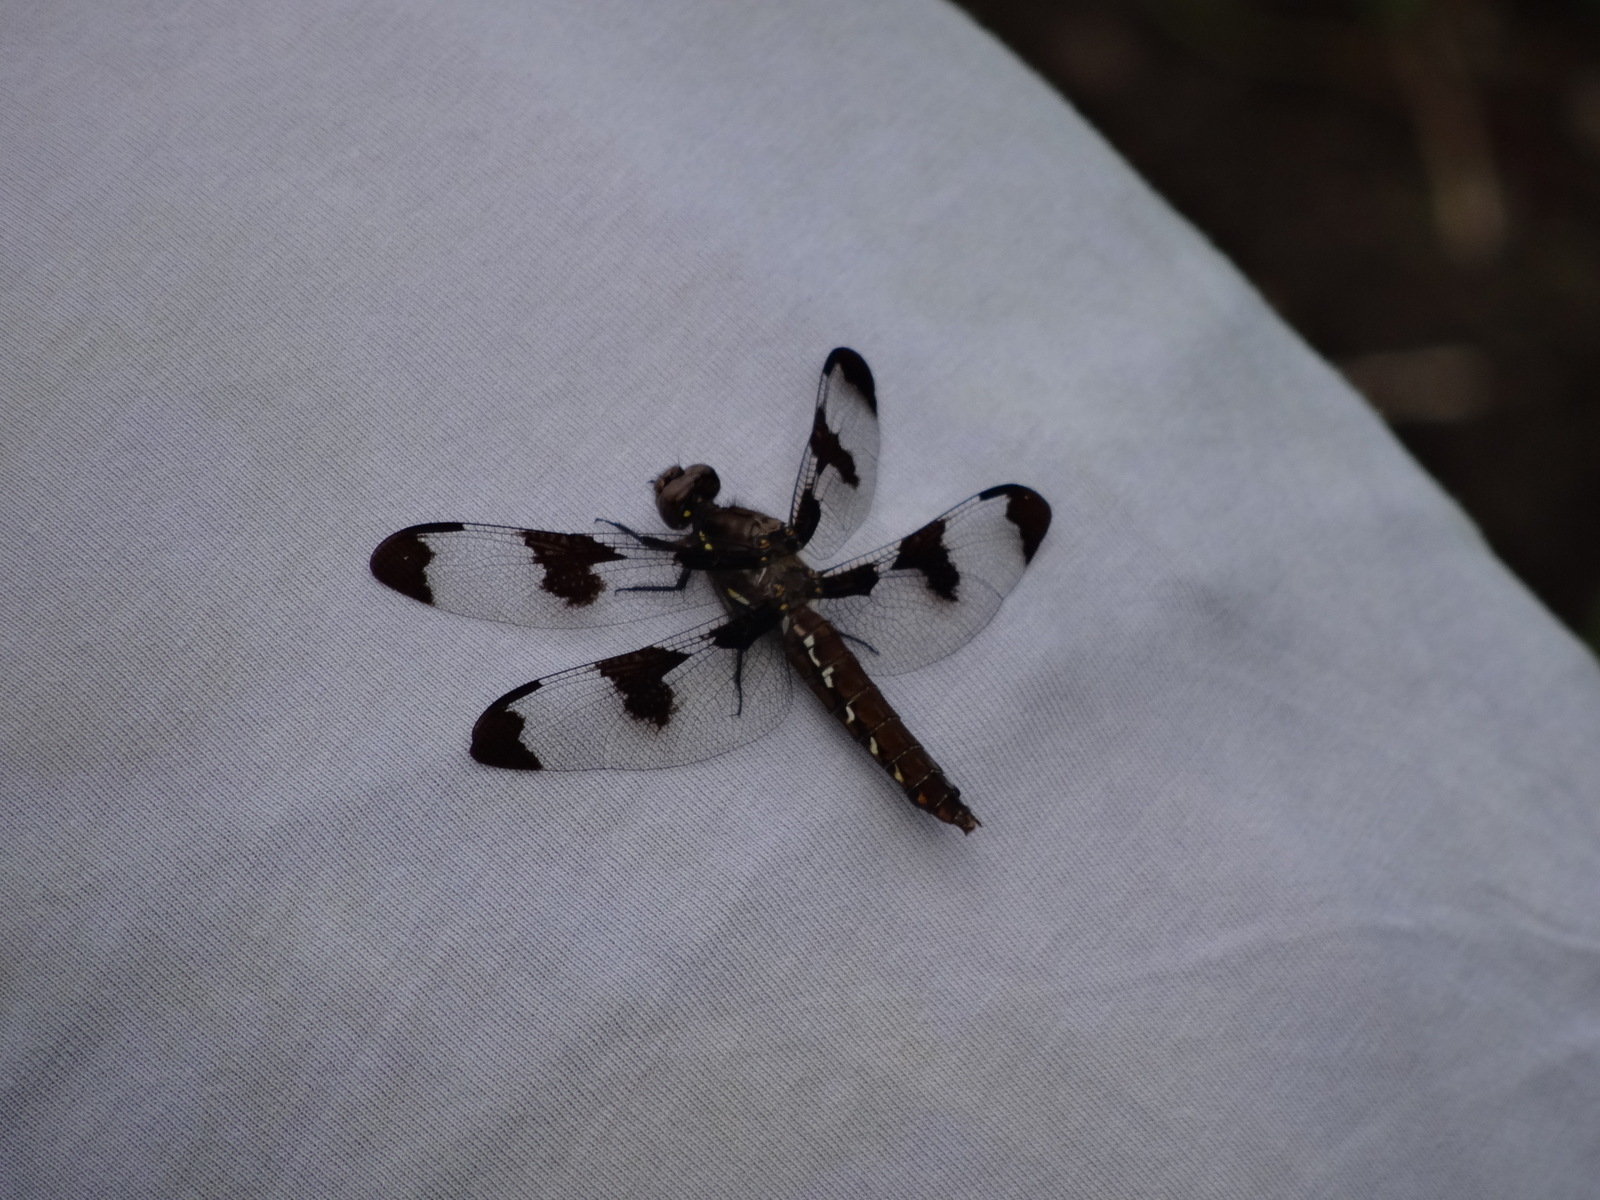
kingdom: Animalia
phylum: Arthropoda
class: Insecta
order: Odonata
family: Libellulidae
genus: Plathemis
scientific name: Plathemis lydia
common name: Common whitetail
